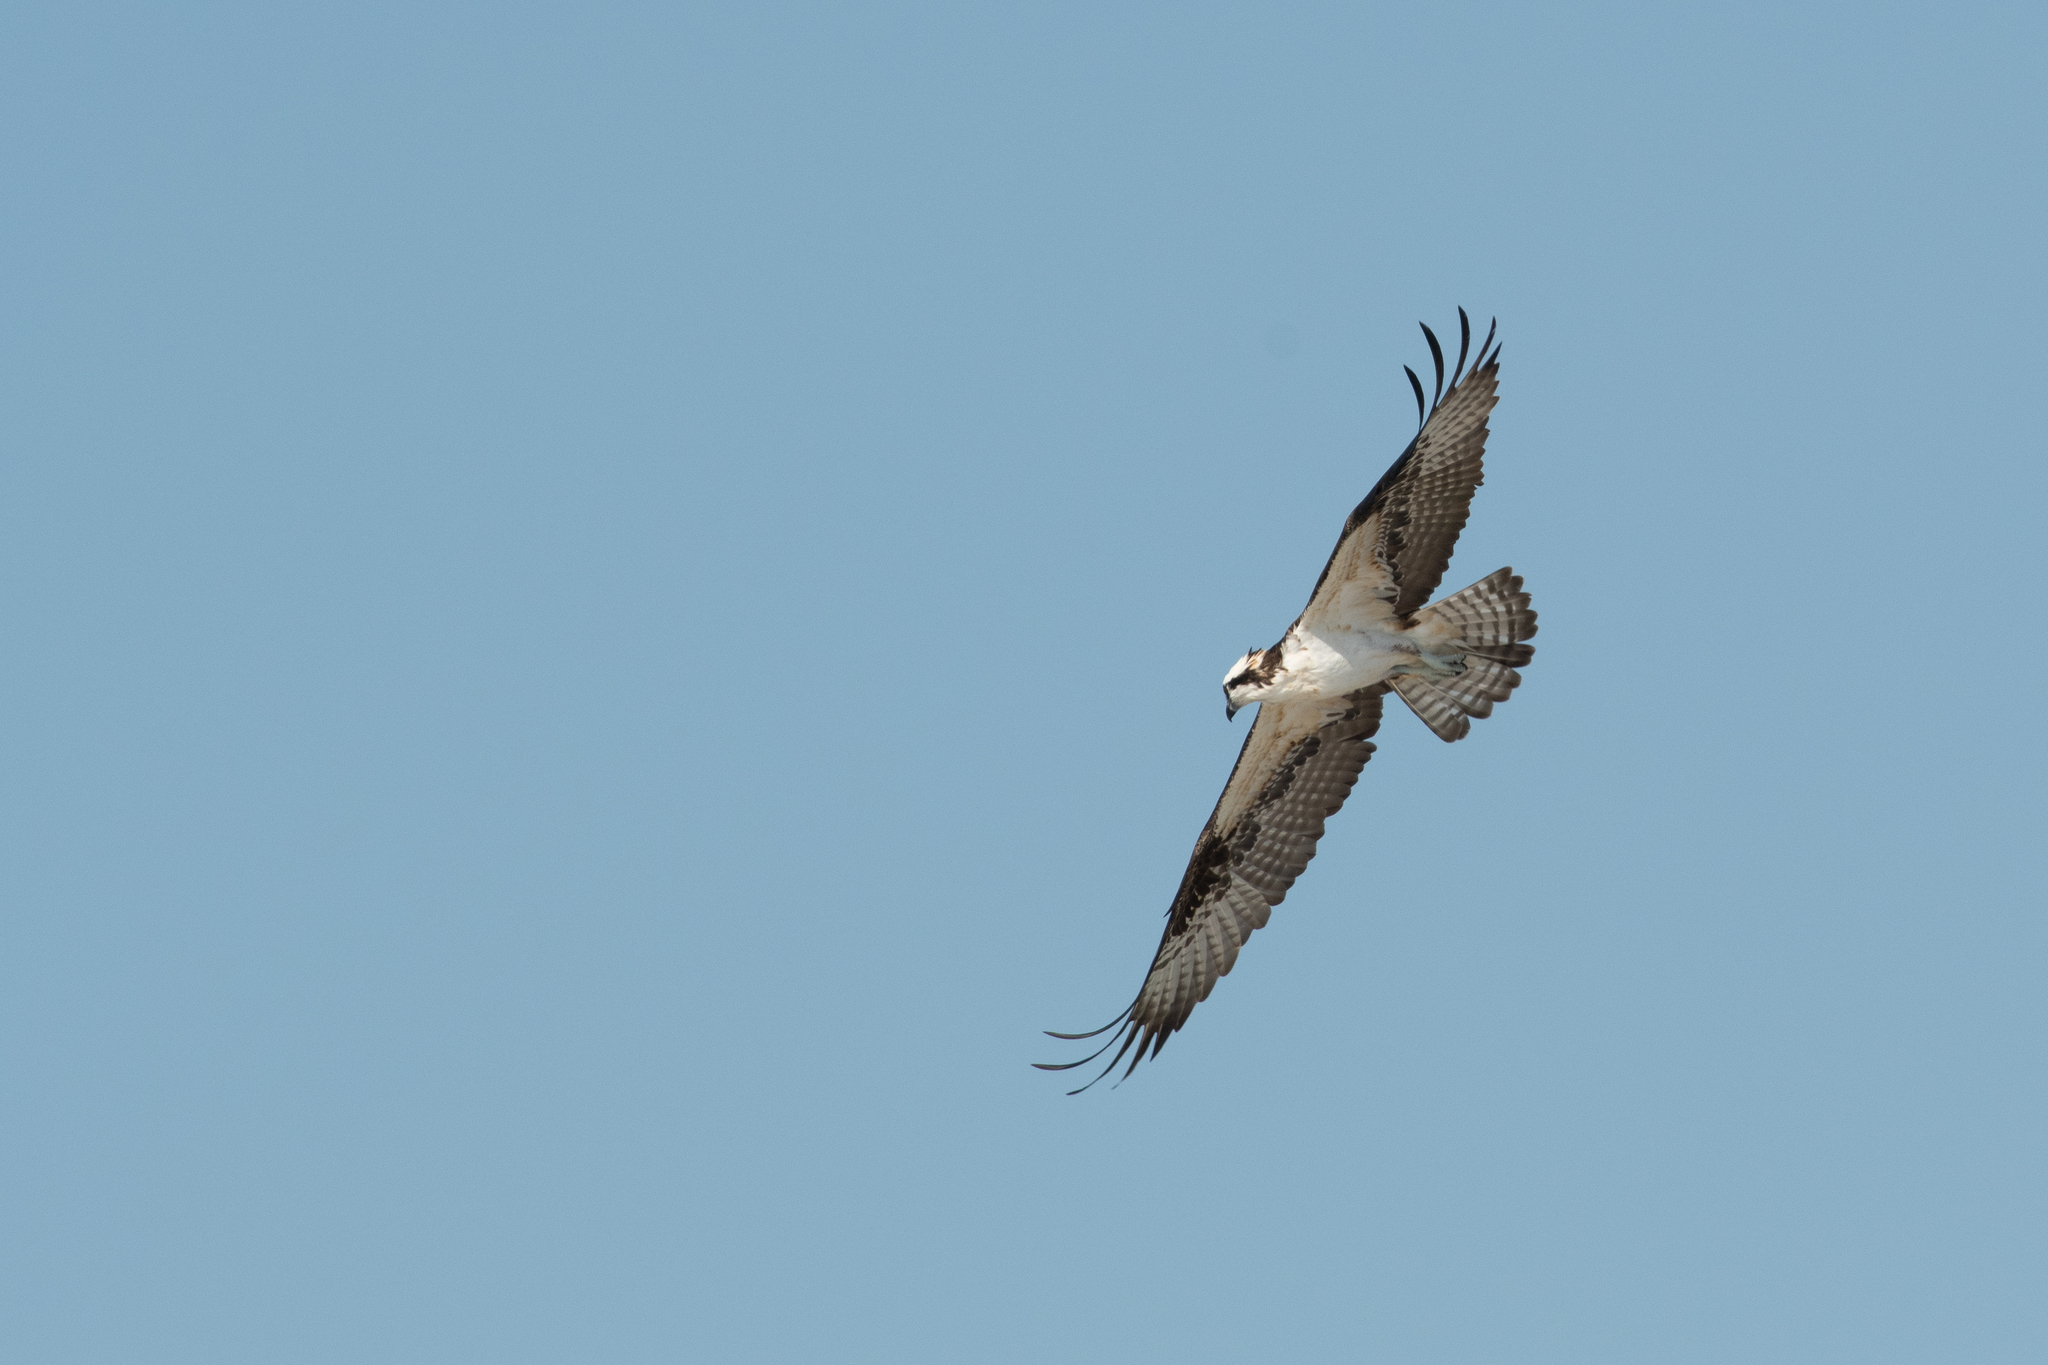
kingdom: Animalia
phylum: Chordata
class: Aves
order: Accipitriformes
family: Pandionidae
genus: Pandion
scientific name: Pandion haliaetus
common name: Osprey
